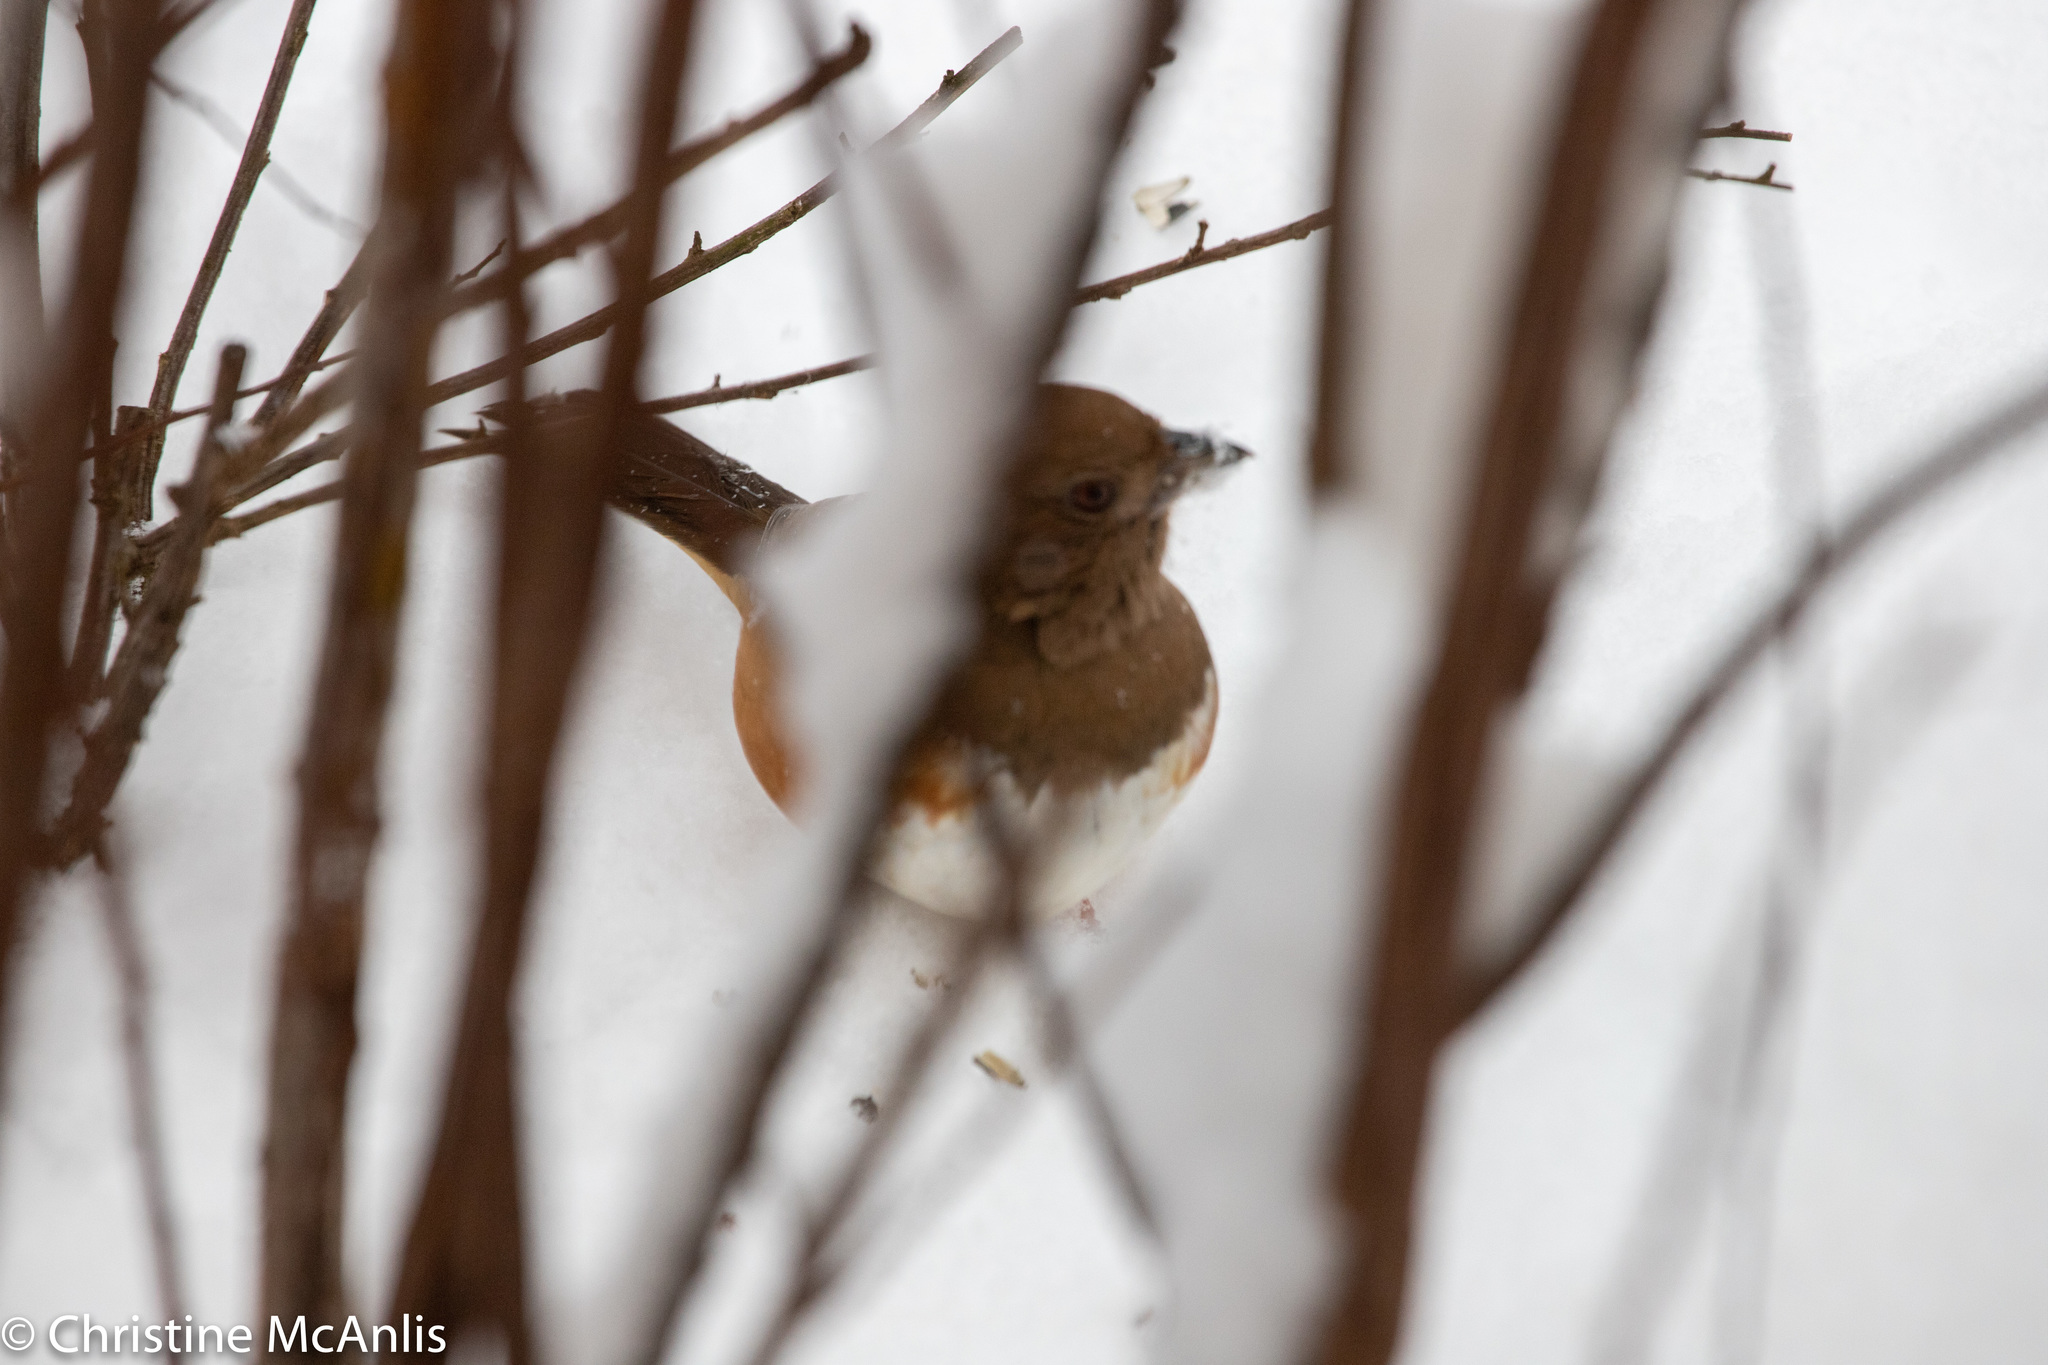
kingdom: Animalia
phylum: Chordata
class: Aves
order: Passeriformes
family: Passerellidae
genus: Pipilo
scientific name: Pipilo erythrophthalmus
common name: Eastern towhee
